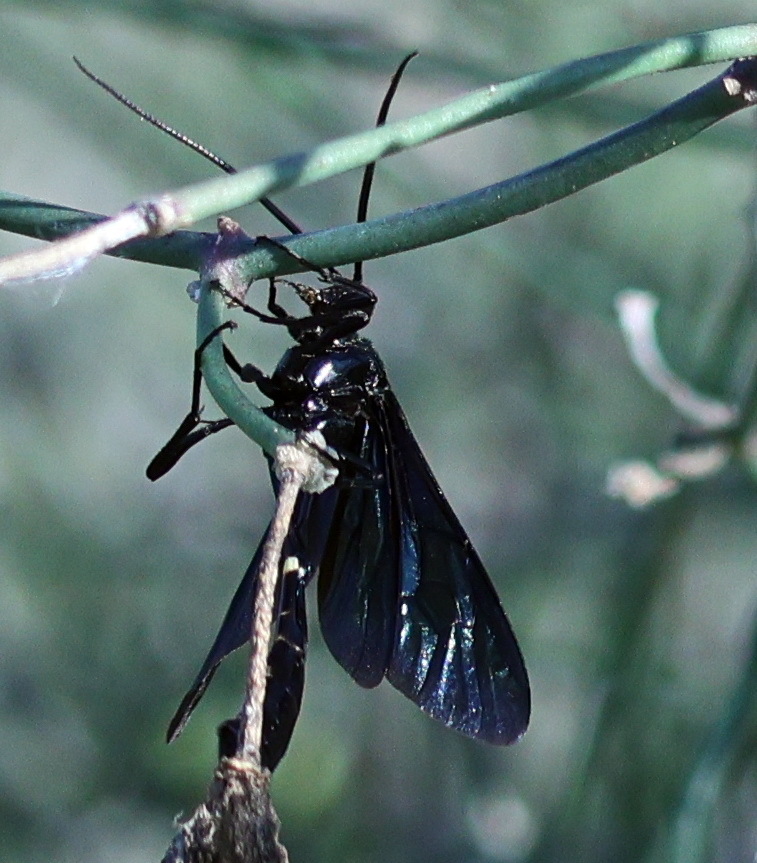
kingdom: Animalia
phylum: Arthropoda
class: Insecta
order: Hymenoptera
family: Ichneumonidae
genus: Thyreodon
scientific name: Thyreodon apricus
